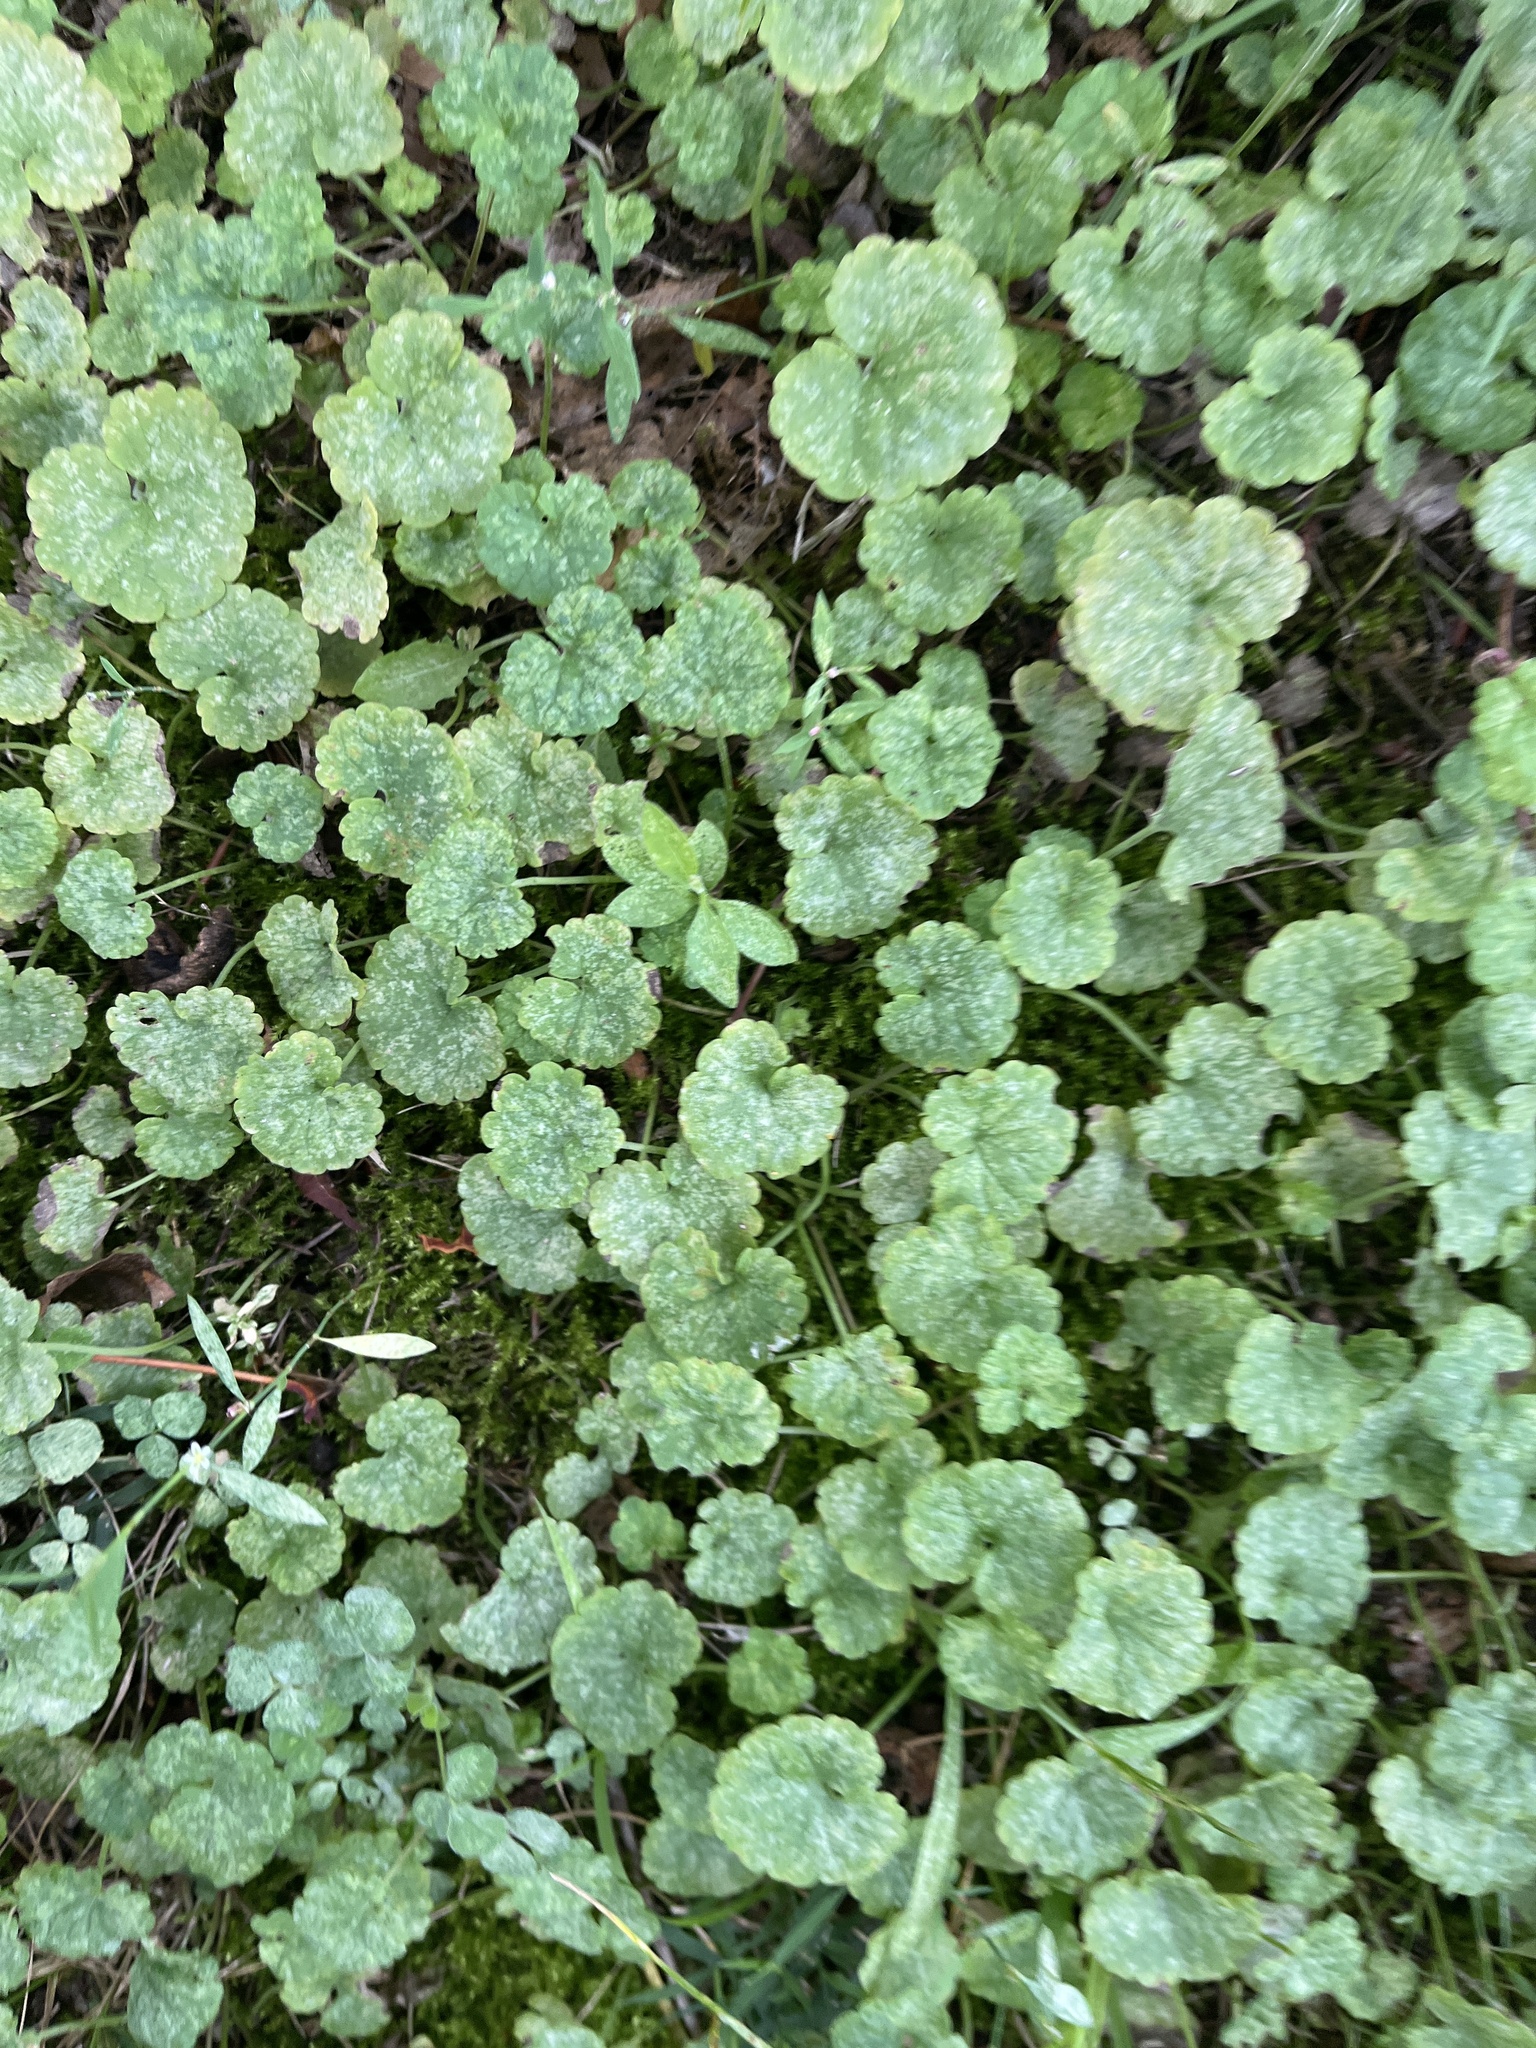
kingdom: Plantae
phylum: Tracheophyta
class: Magnoliopsida
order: Lamiales
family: Lamiaceae
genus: Glechoma
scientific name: Glechoma hederacea
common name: Ground ivy
